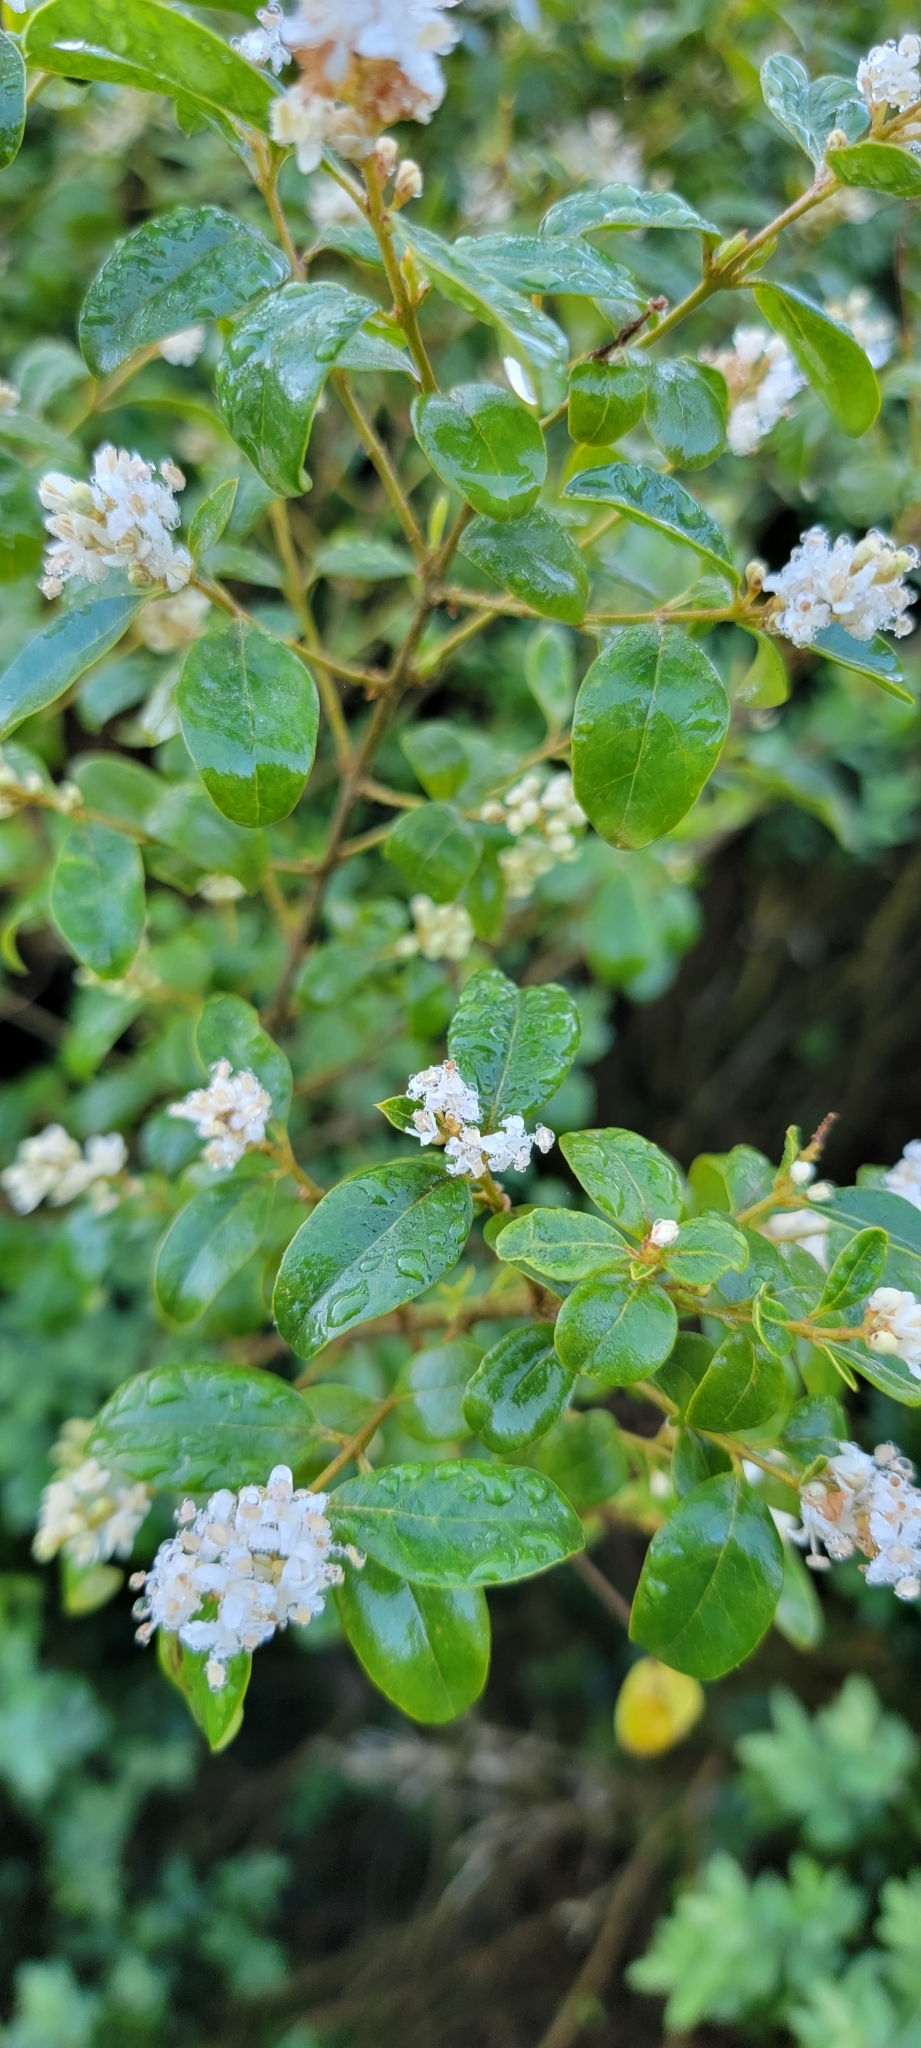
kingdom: Plantae
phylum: Tracheophyta
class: Magnoliopsida
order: Lamiales
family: Oleaceae
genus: Ligustrum
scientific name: Ligustrum sinense
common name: Chinese privet
